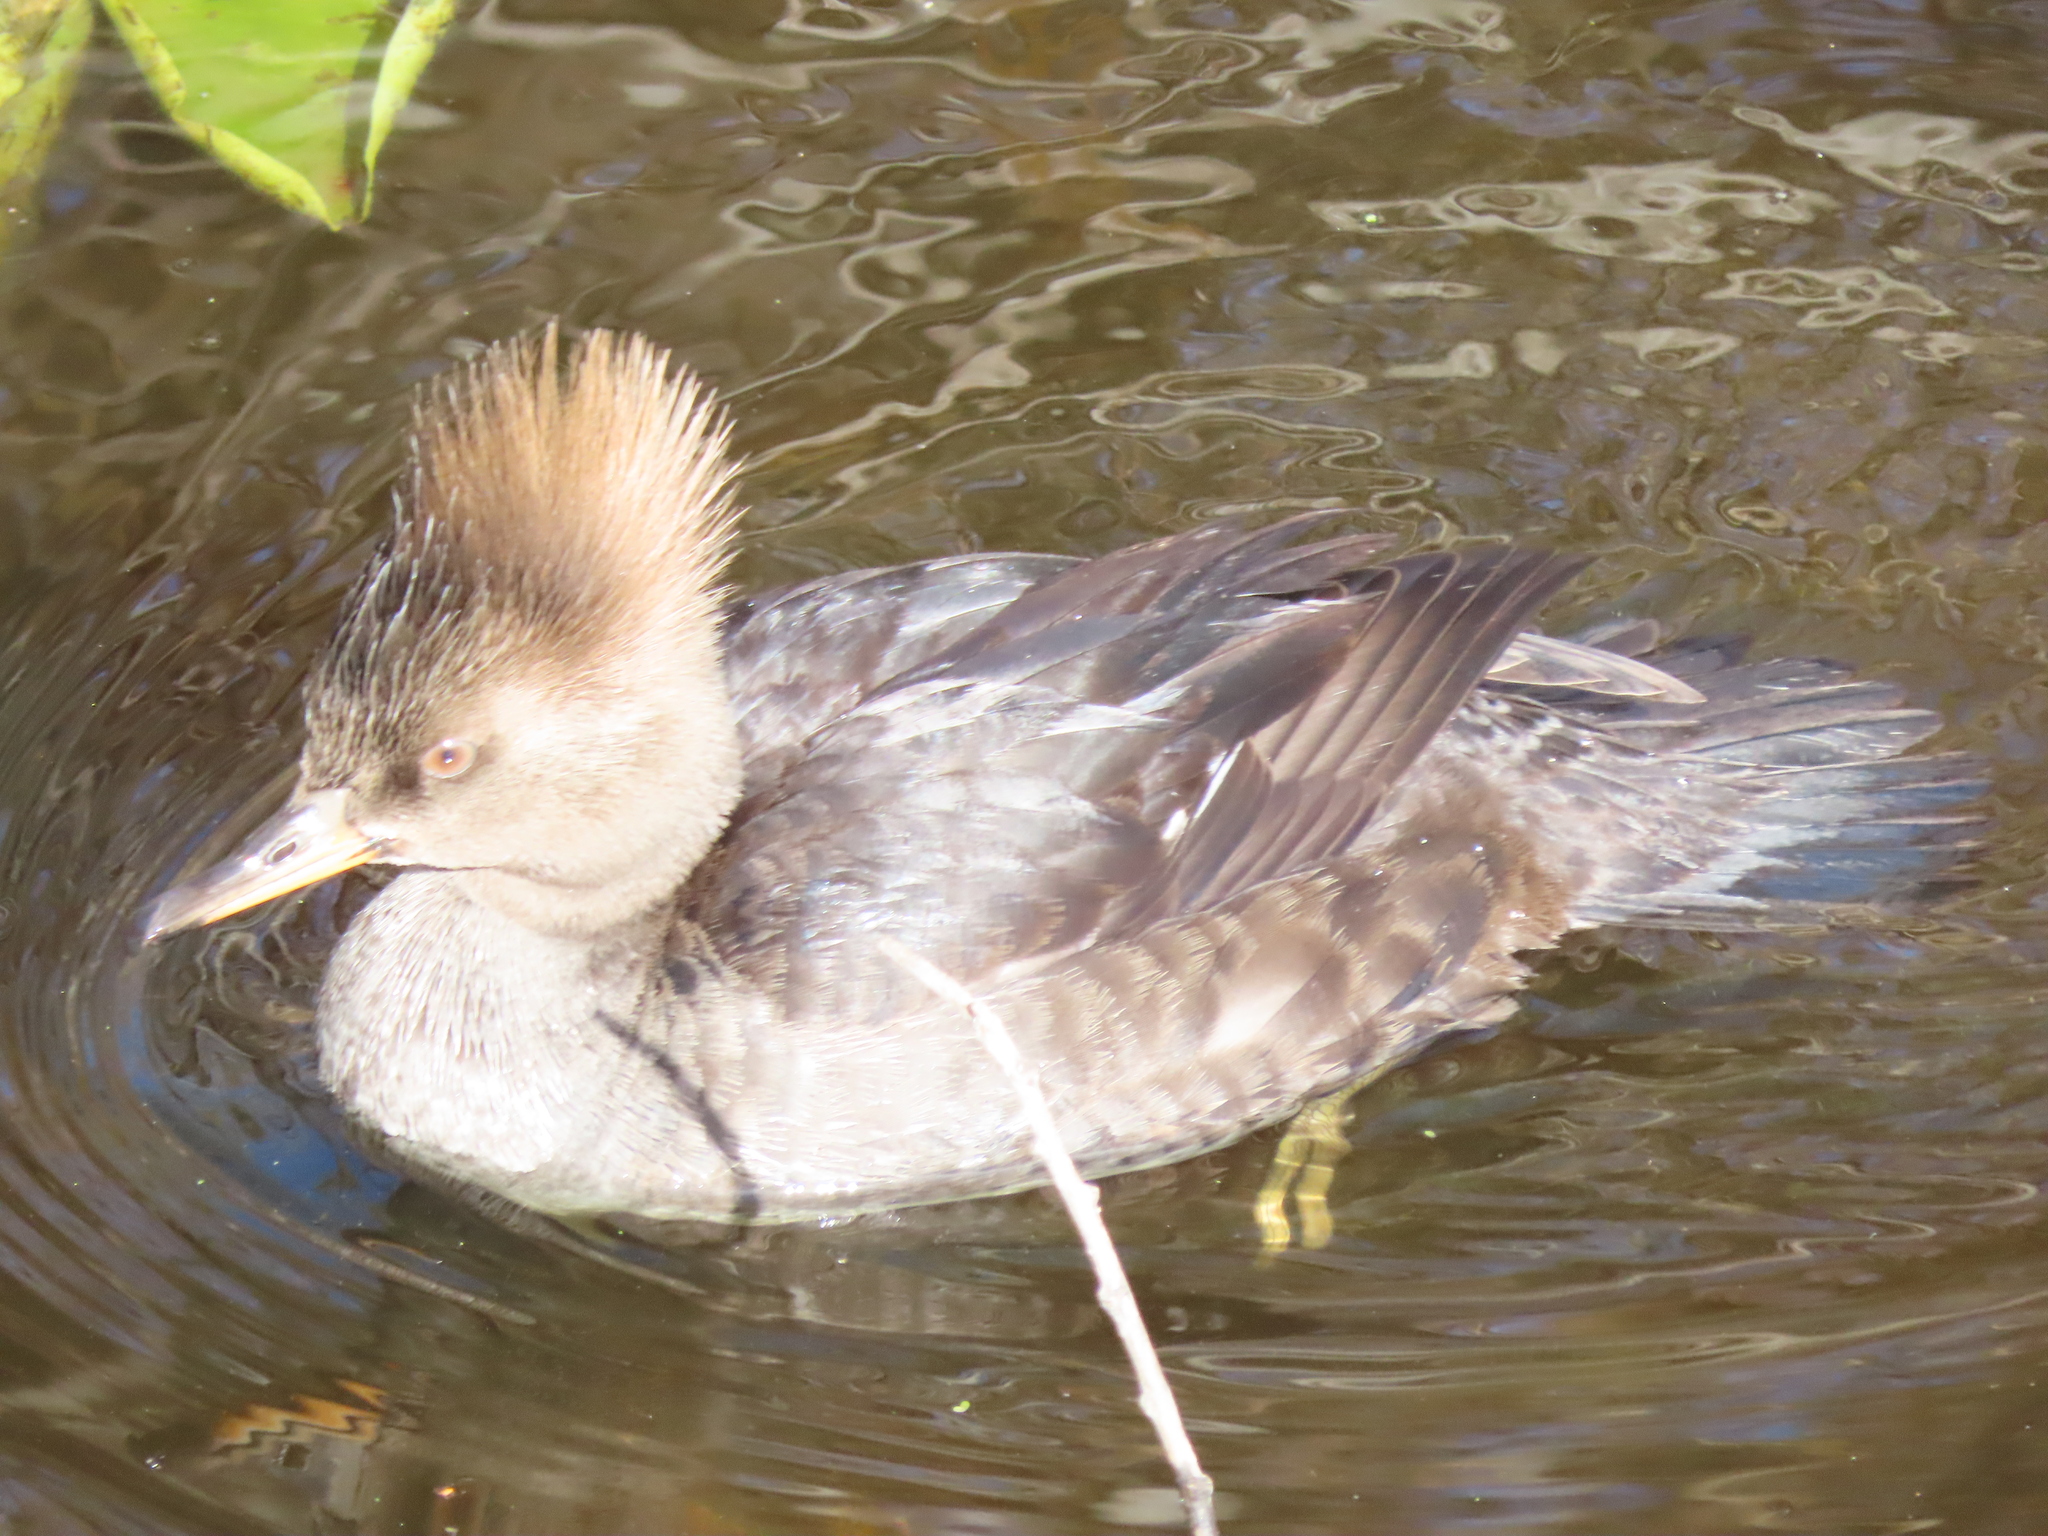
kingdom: Animalia
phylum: Chordata
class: Aves
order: Anseriformes
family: Anatidae
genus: Lophodytes
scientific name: Lophodytes cucullatus
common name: Hooded merganser
